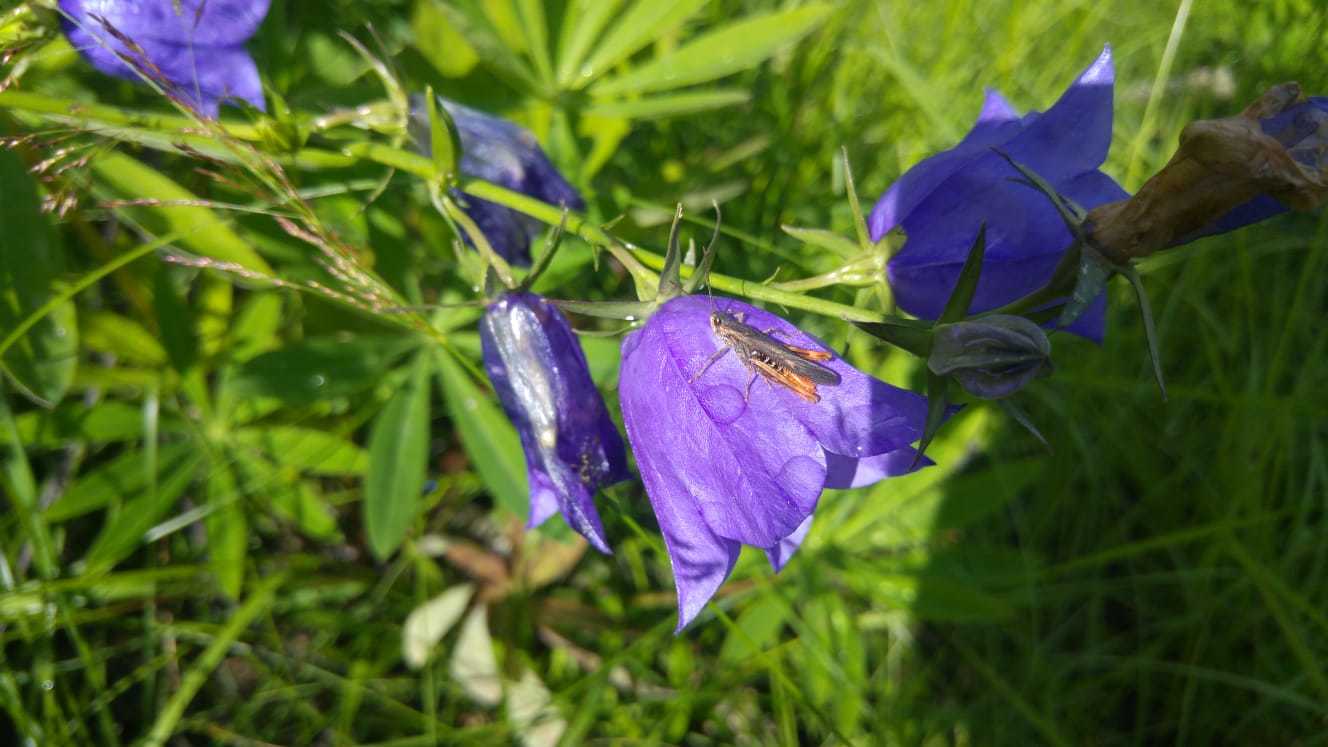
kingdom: Plantae
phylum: Tracheophyta
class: Magnoliopsida
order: Asterales
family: Campanulaceae
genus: Campanula
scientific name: Campanula persicifolia
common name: Peach-leaved bellflower
